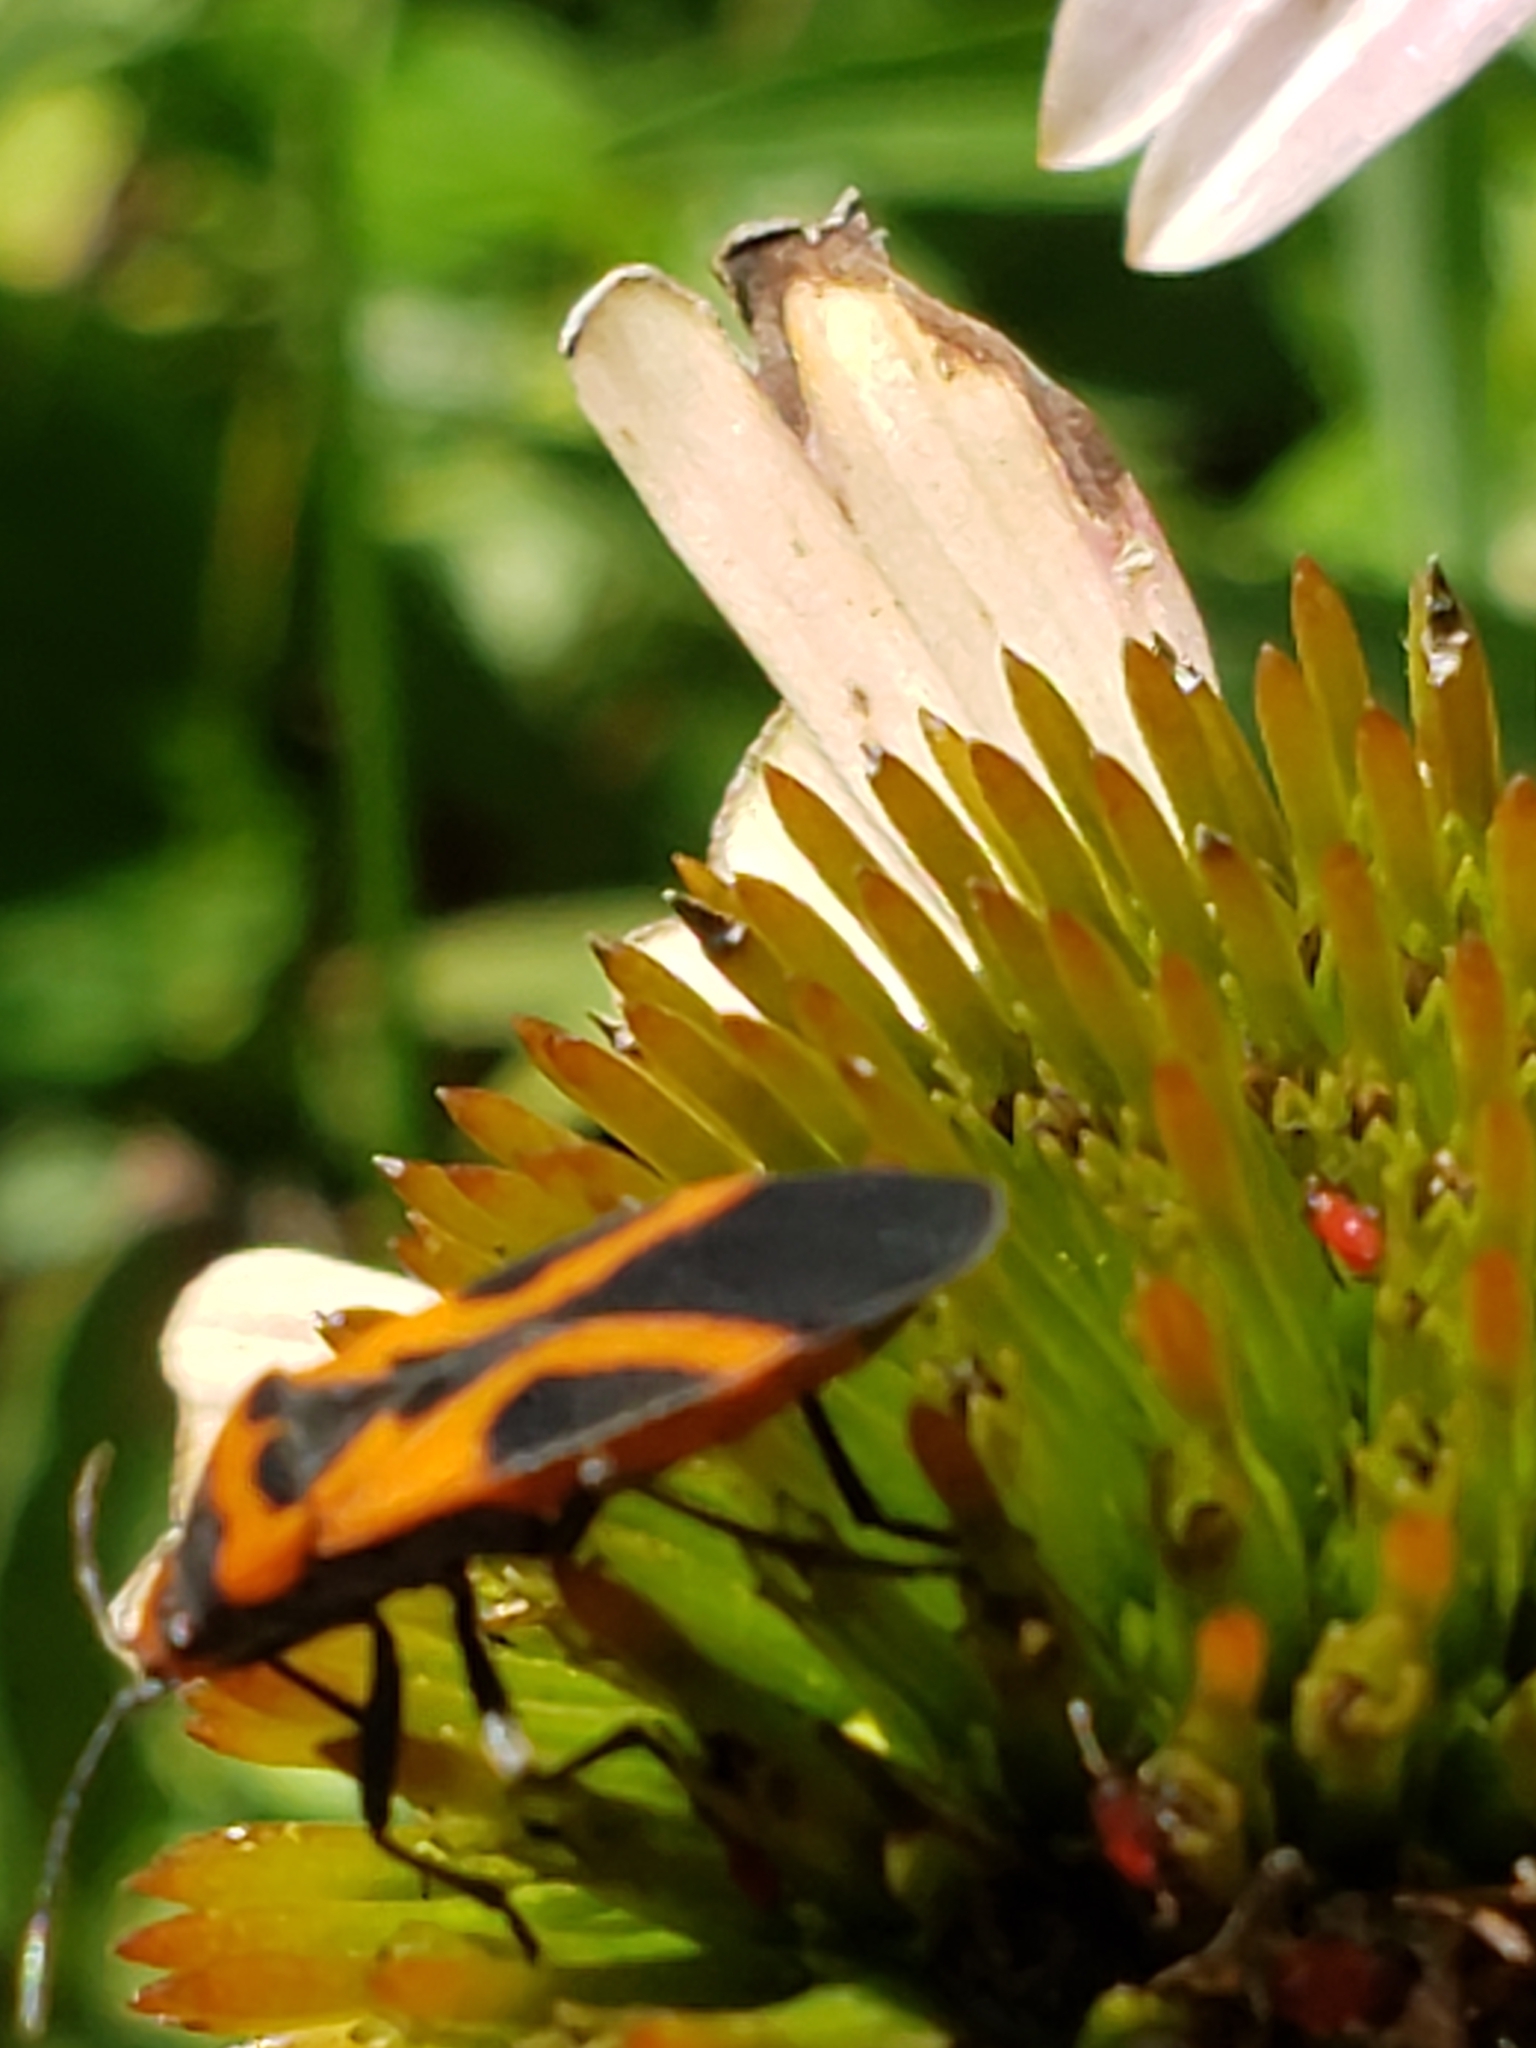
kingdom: Animalia
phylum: Arthropoda
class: Insecta
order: Hemiptera
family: Lygaeidae
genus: Lygaeus
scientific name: Lygaeus turcicus
